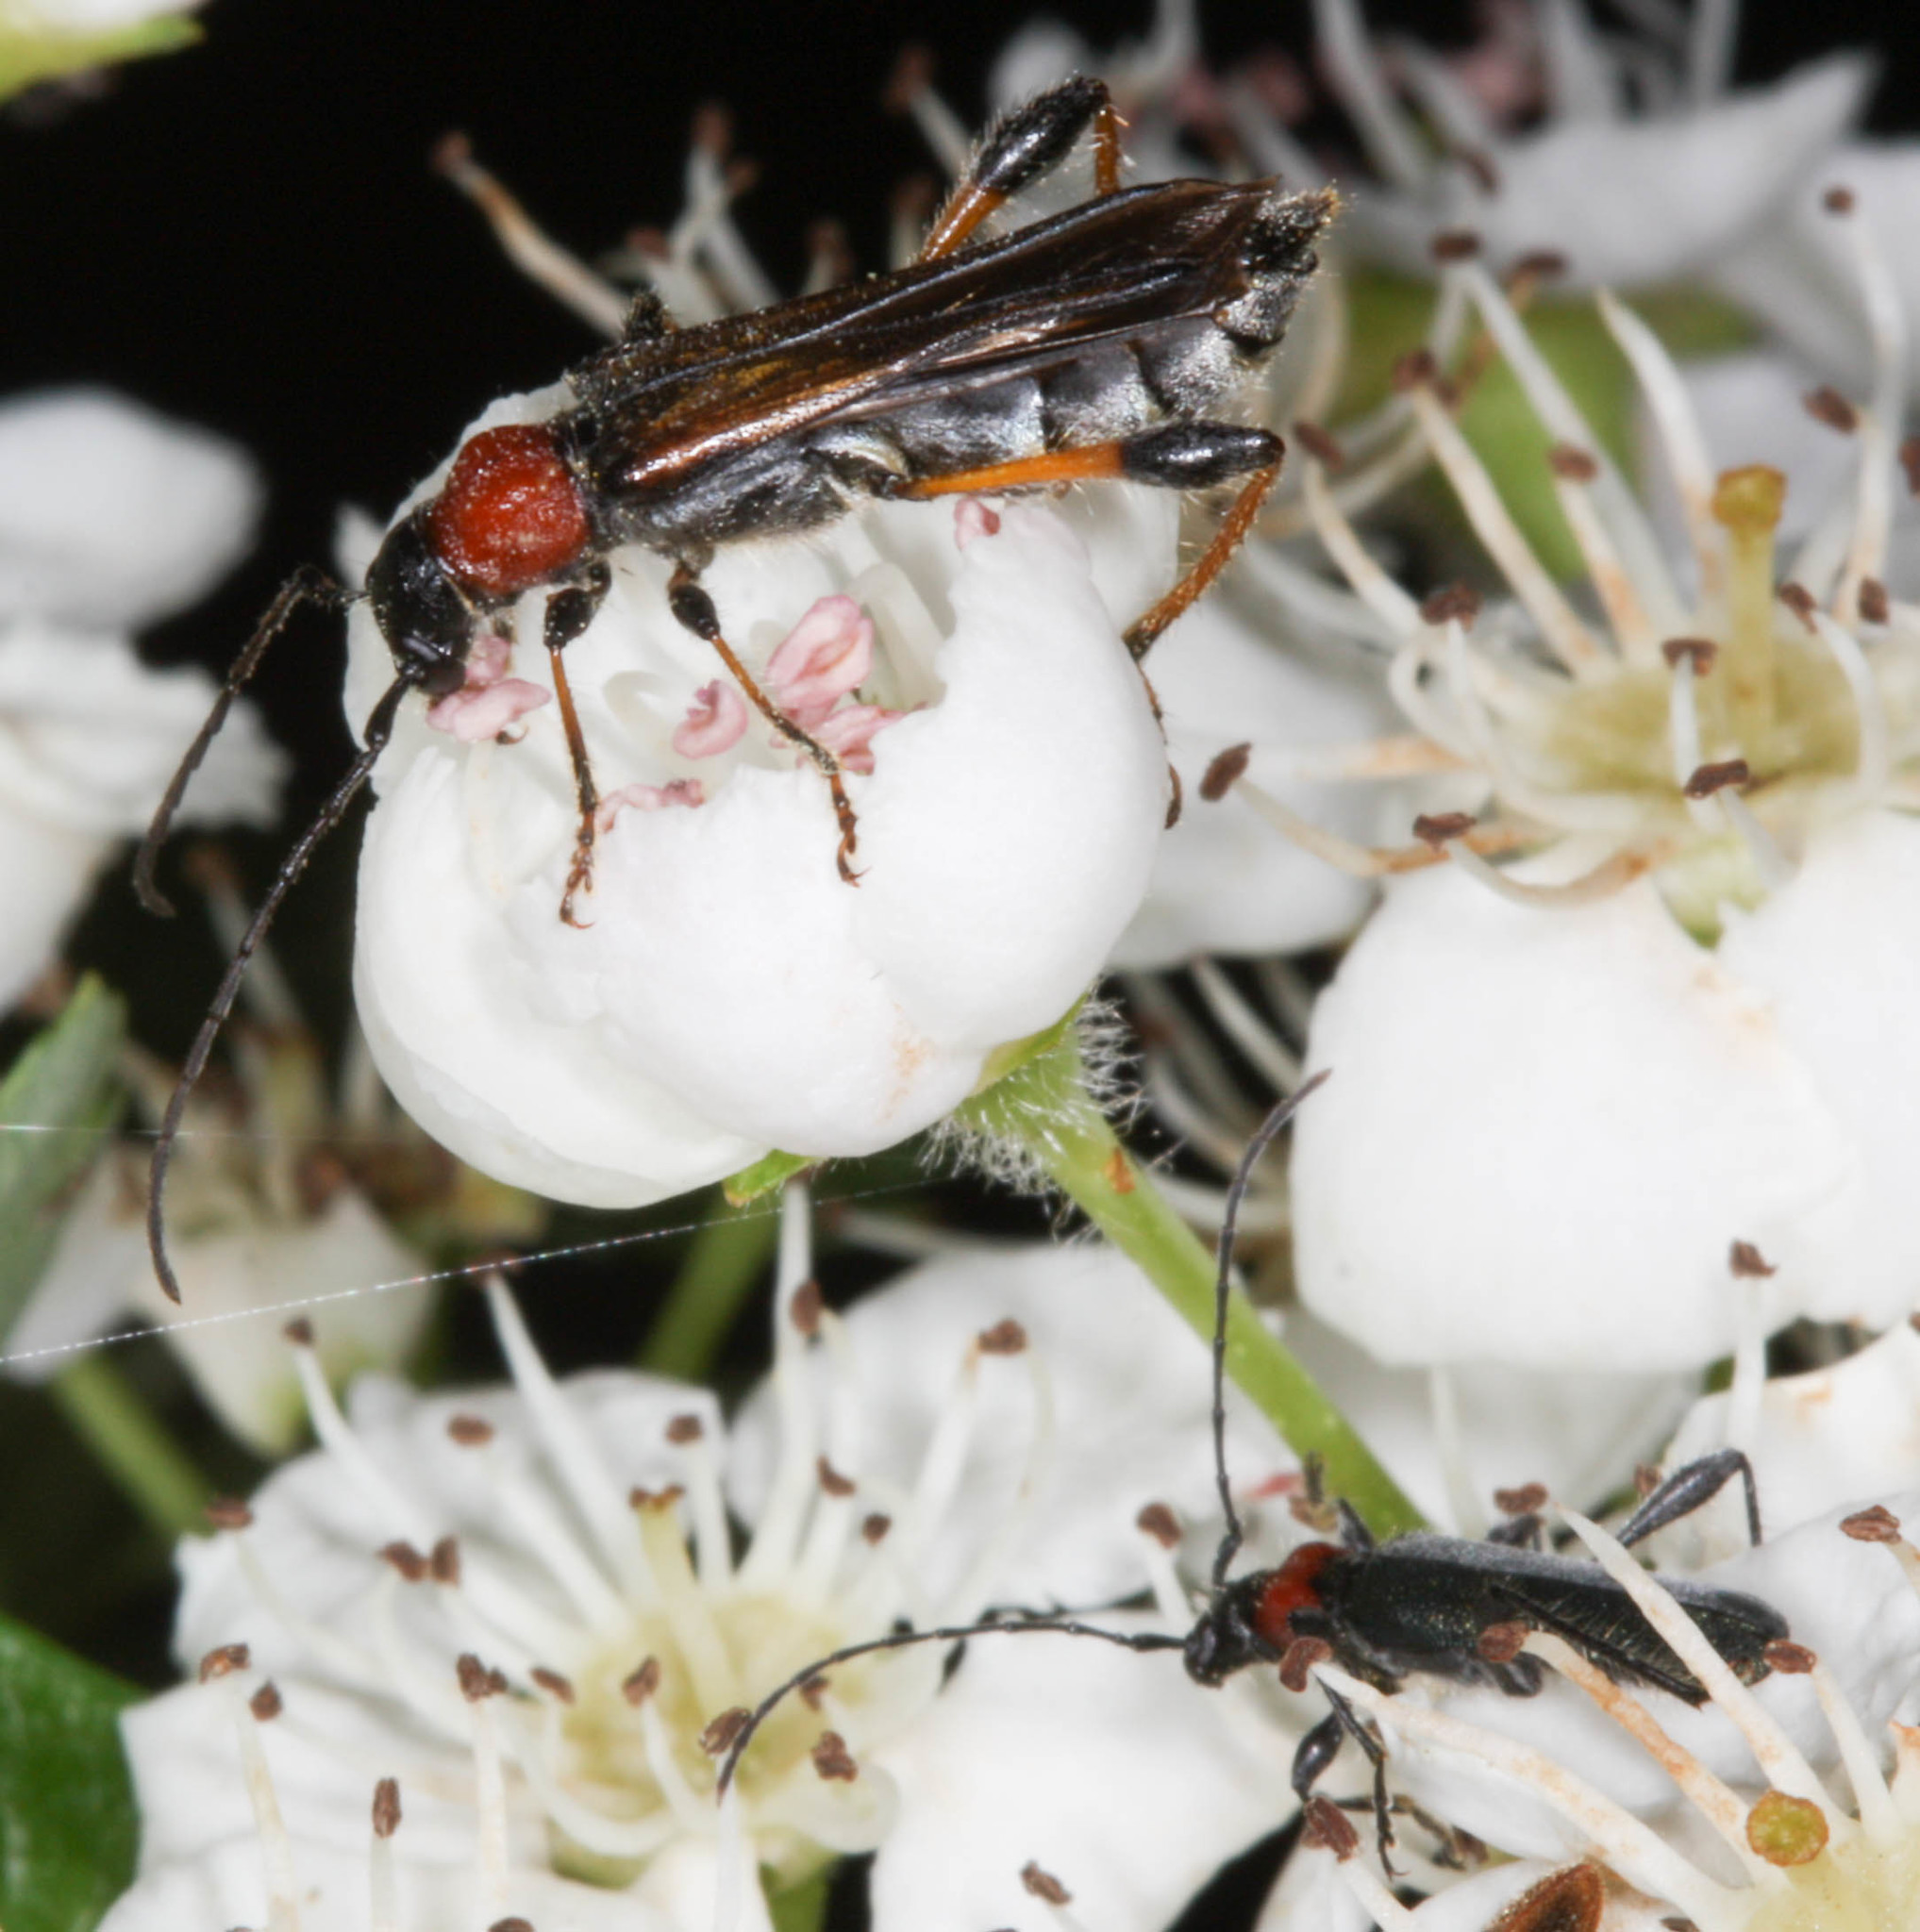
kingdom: Animalia
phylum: Arthropoda
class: Insecta
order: Coleoptera
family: Cerambycidae
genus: Callimoxys
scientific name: Callimoxys fuscipennis
